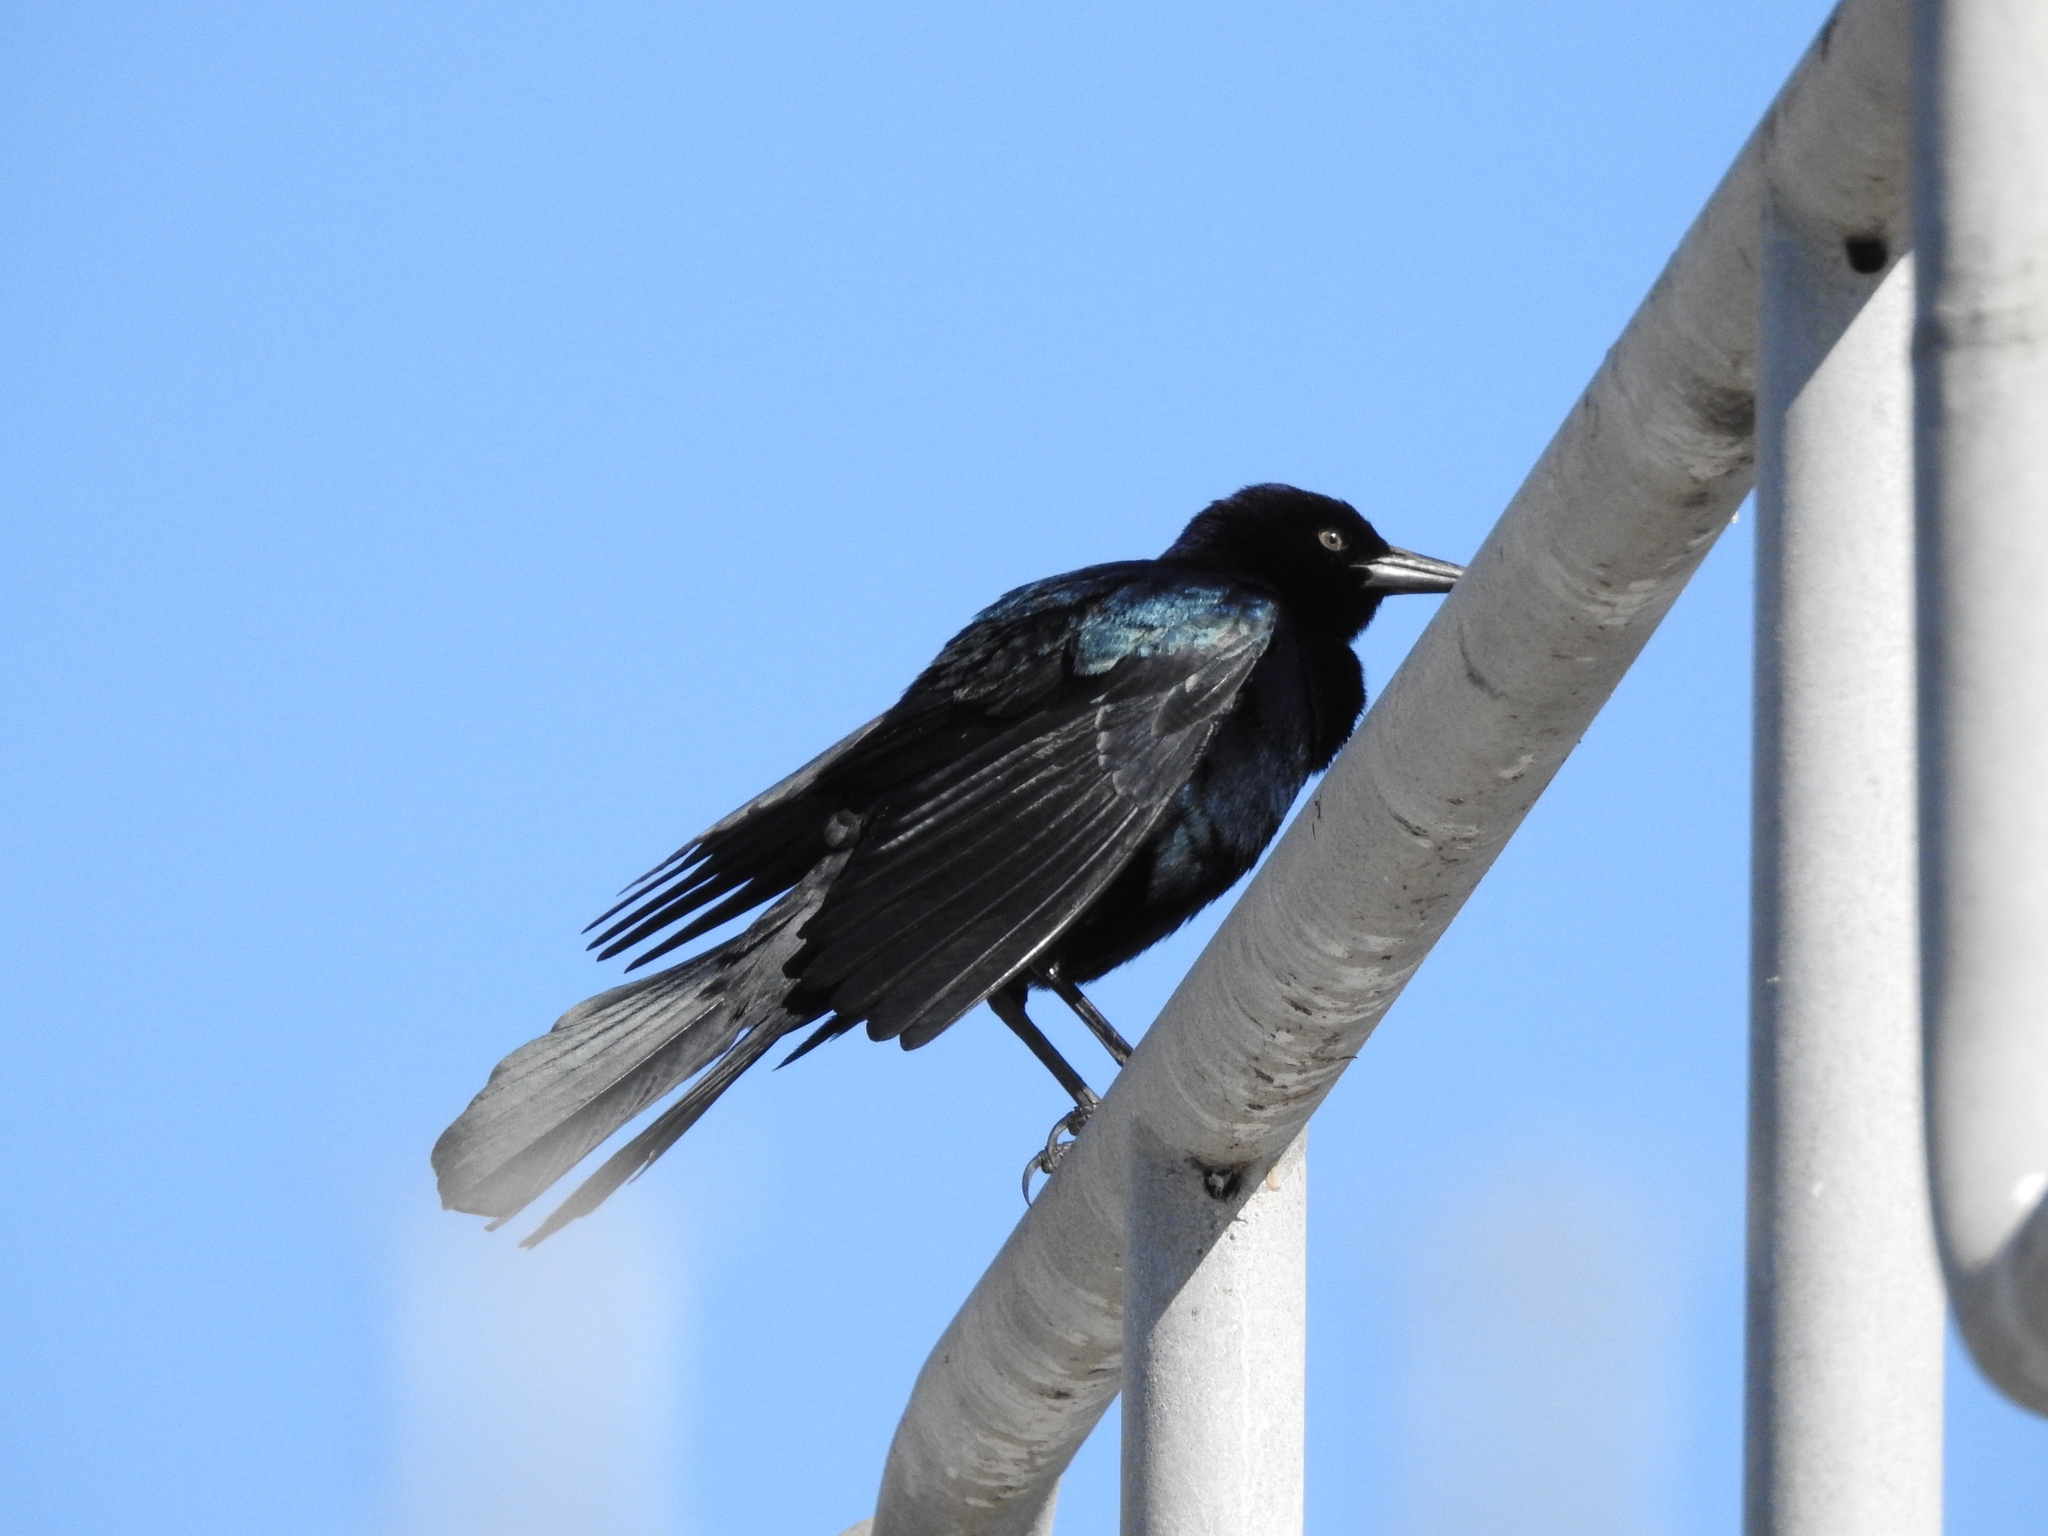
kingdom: Animalia
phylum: Chordata
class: Aves
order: Passeriformes
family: Icteridae
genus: Quiscalus
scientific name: Quiscalus major
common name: Boat-tailed grackle
